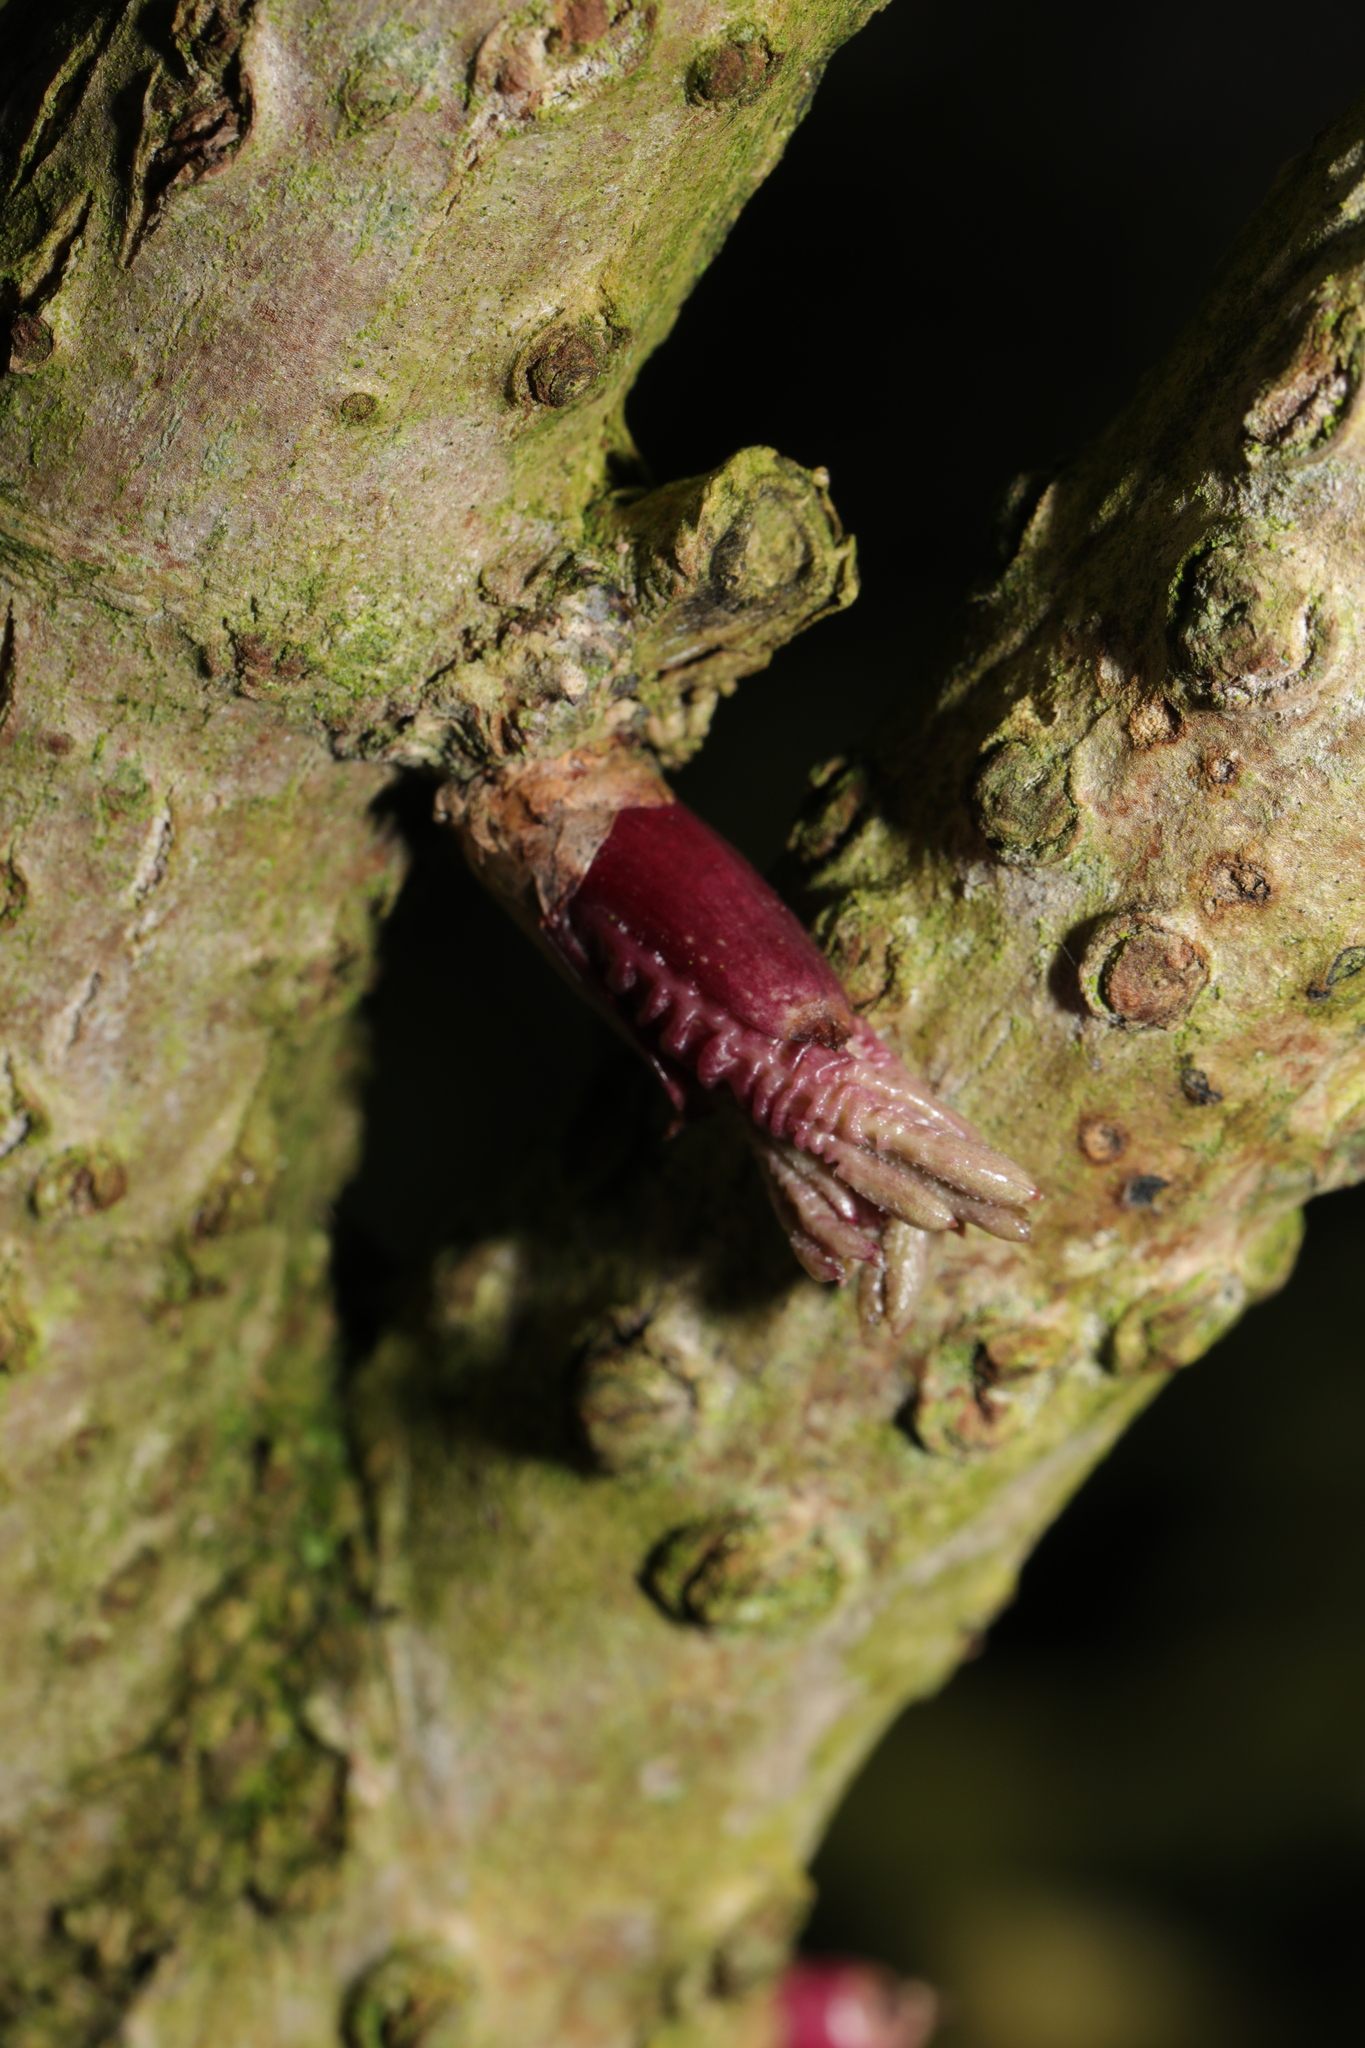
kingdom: Plantae
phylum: Tracheophyta
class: Magnoliopsida
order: Dipsacales
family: Viburnaceae
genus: Sambucus
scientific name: Sambucus nigra
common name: Elder
